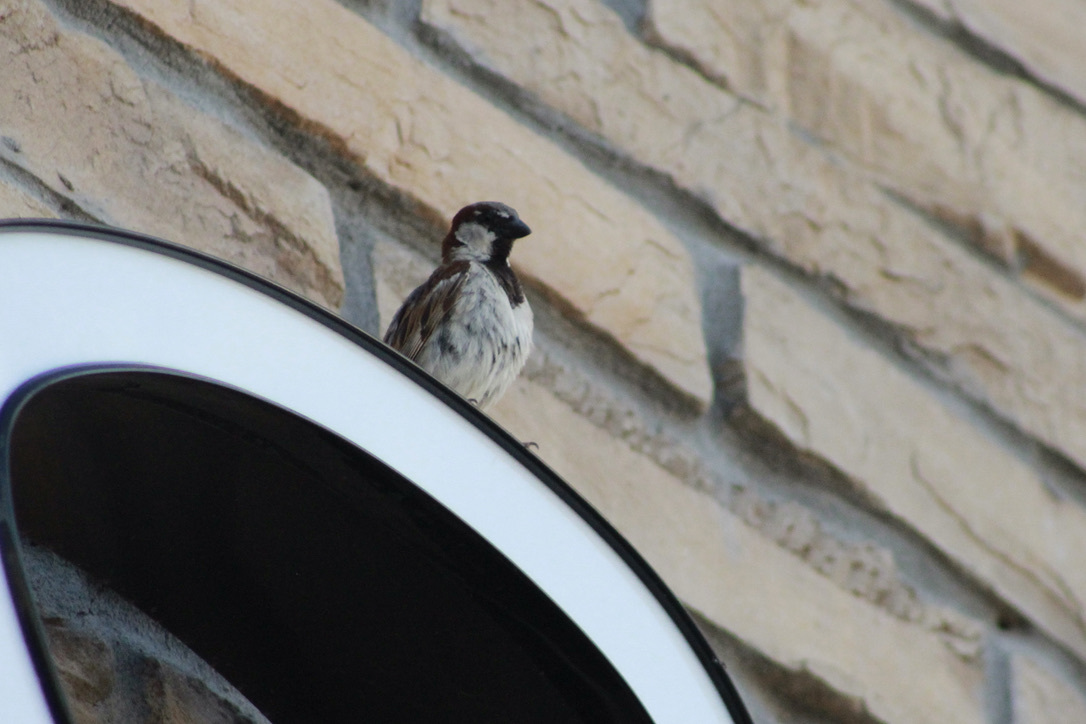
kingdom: Animalia
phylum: Chordata
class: Aves
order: Passeriformes
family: Passeridae
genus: Passer
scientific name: Passer domesticus
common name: House sparrow
